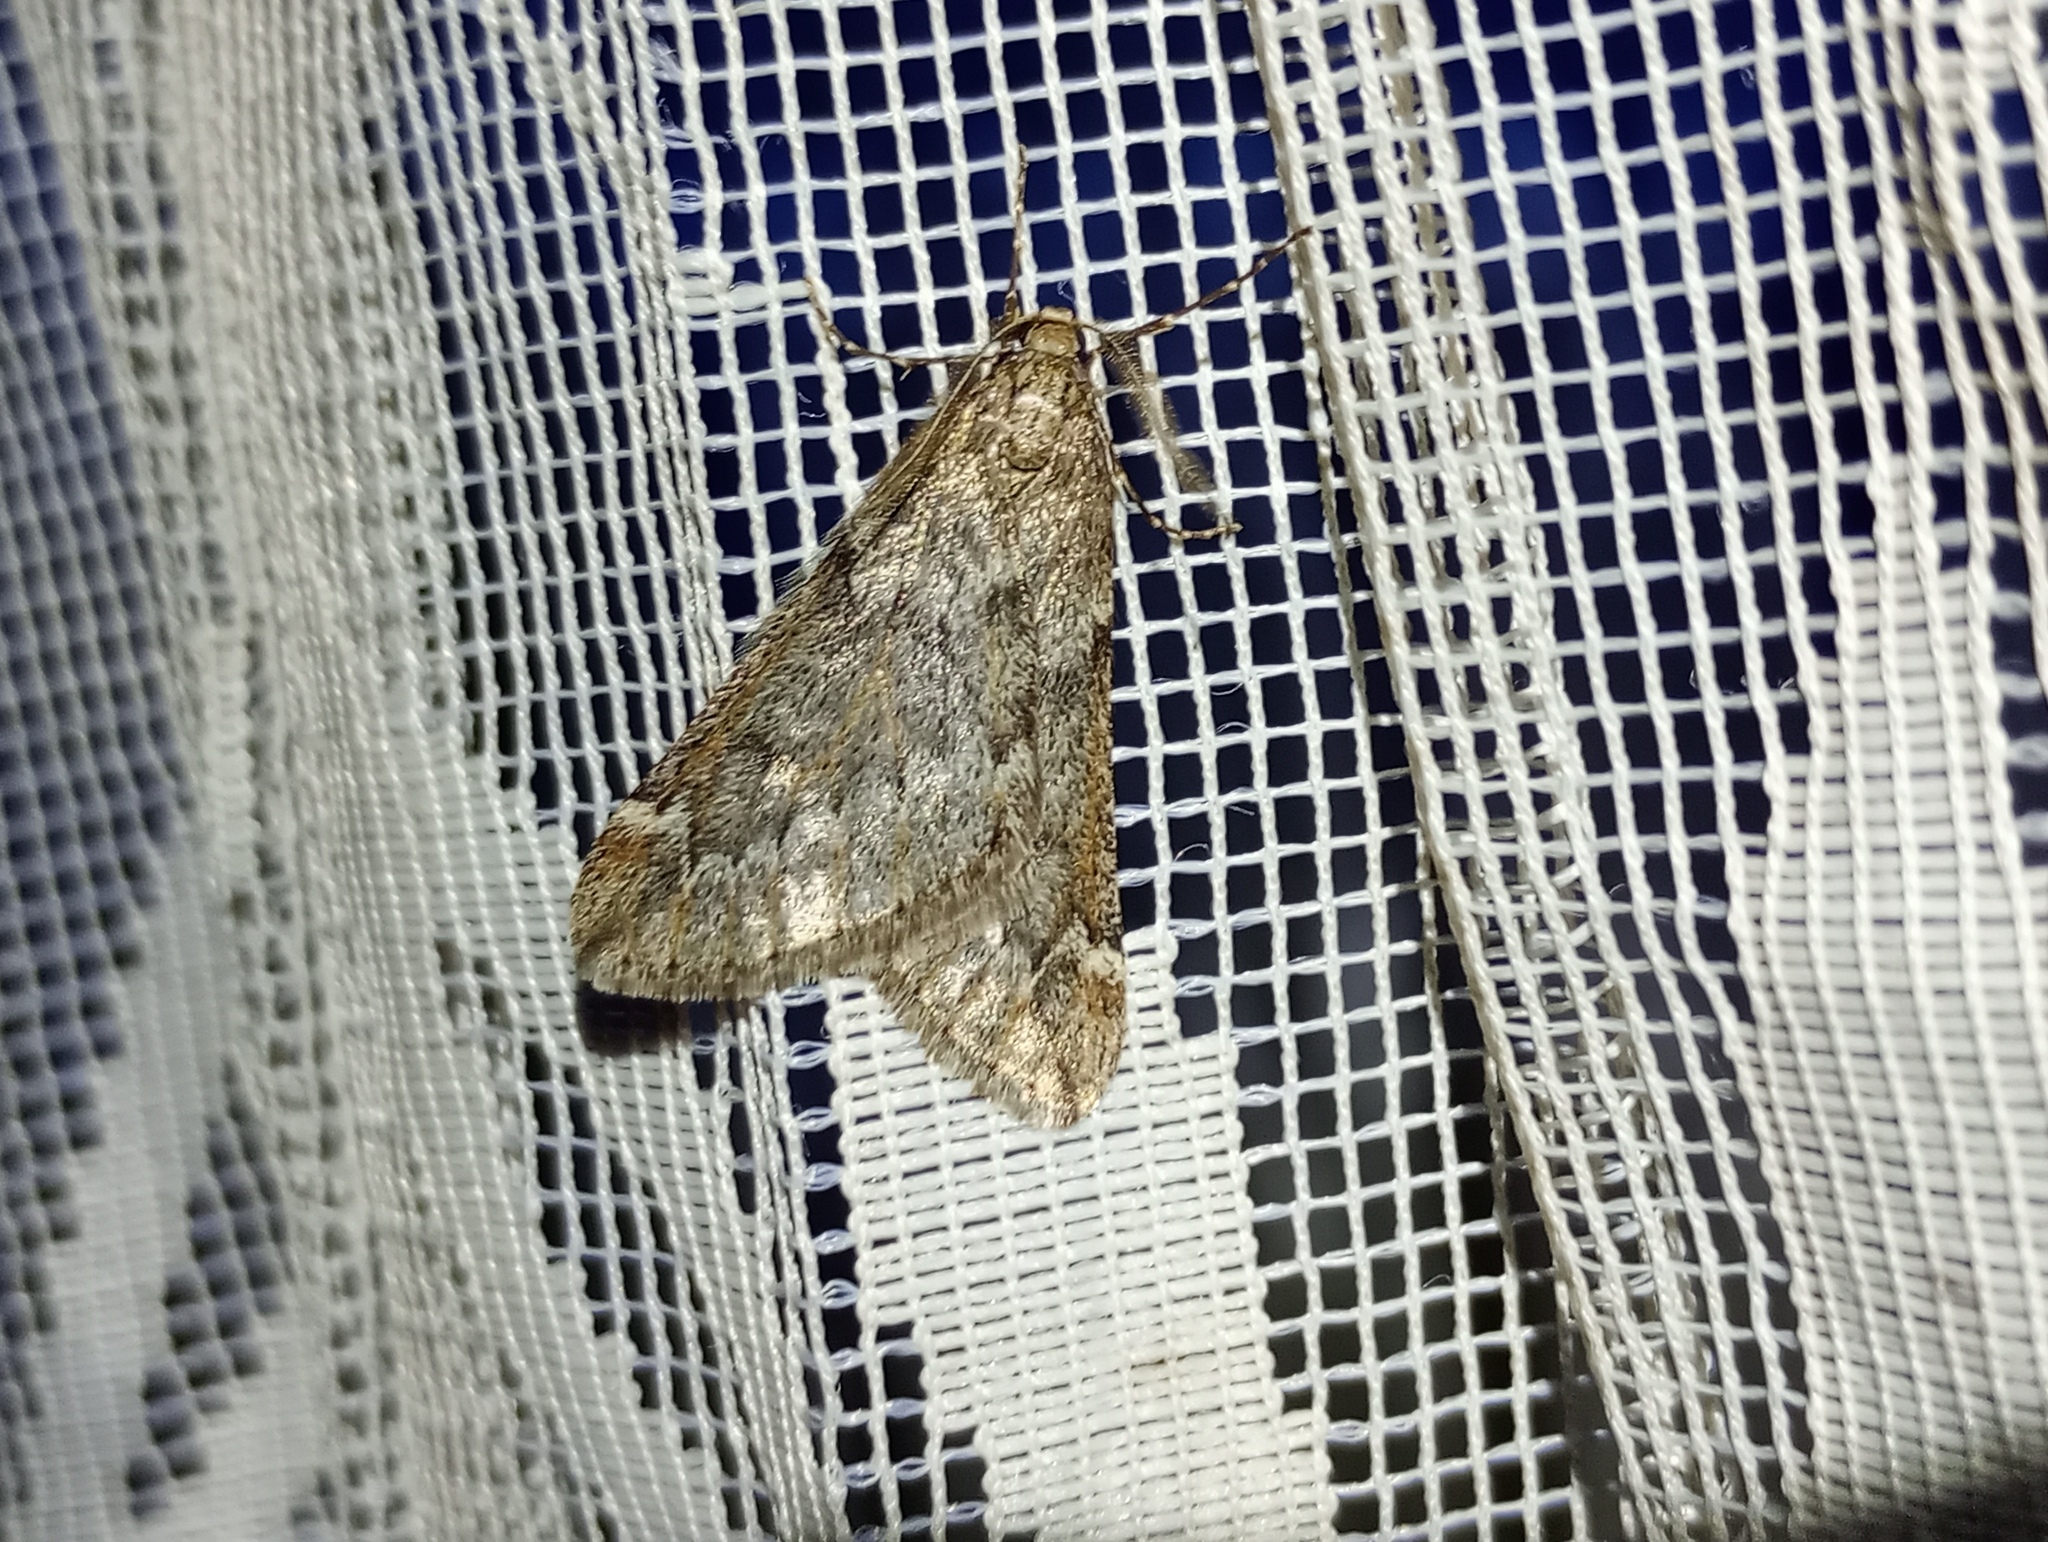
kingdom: Animalia
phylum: Arthropoda
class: Insecta
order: Lepidoptera
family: Geometridae
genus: Alsophila
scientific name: Alsophila aescularia
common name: March moth
